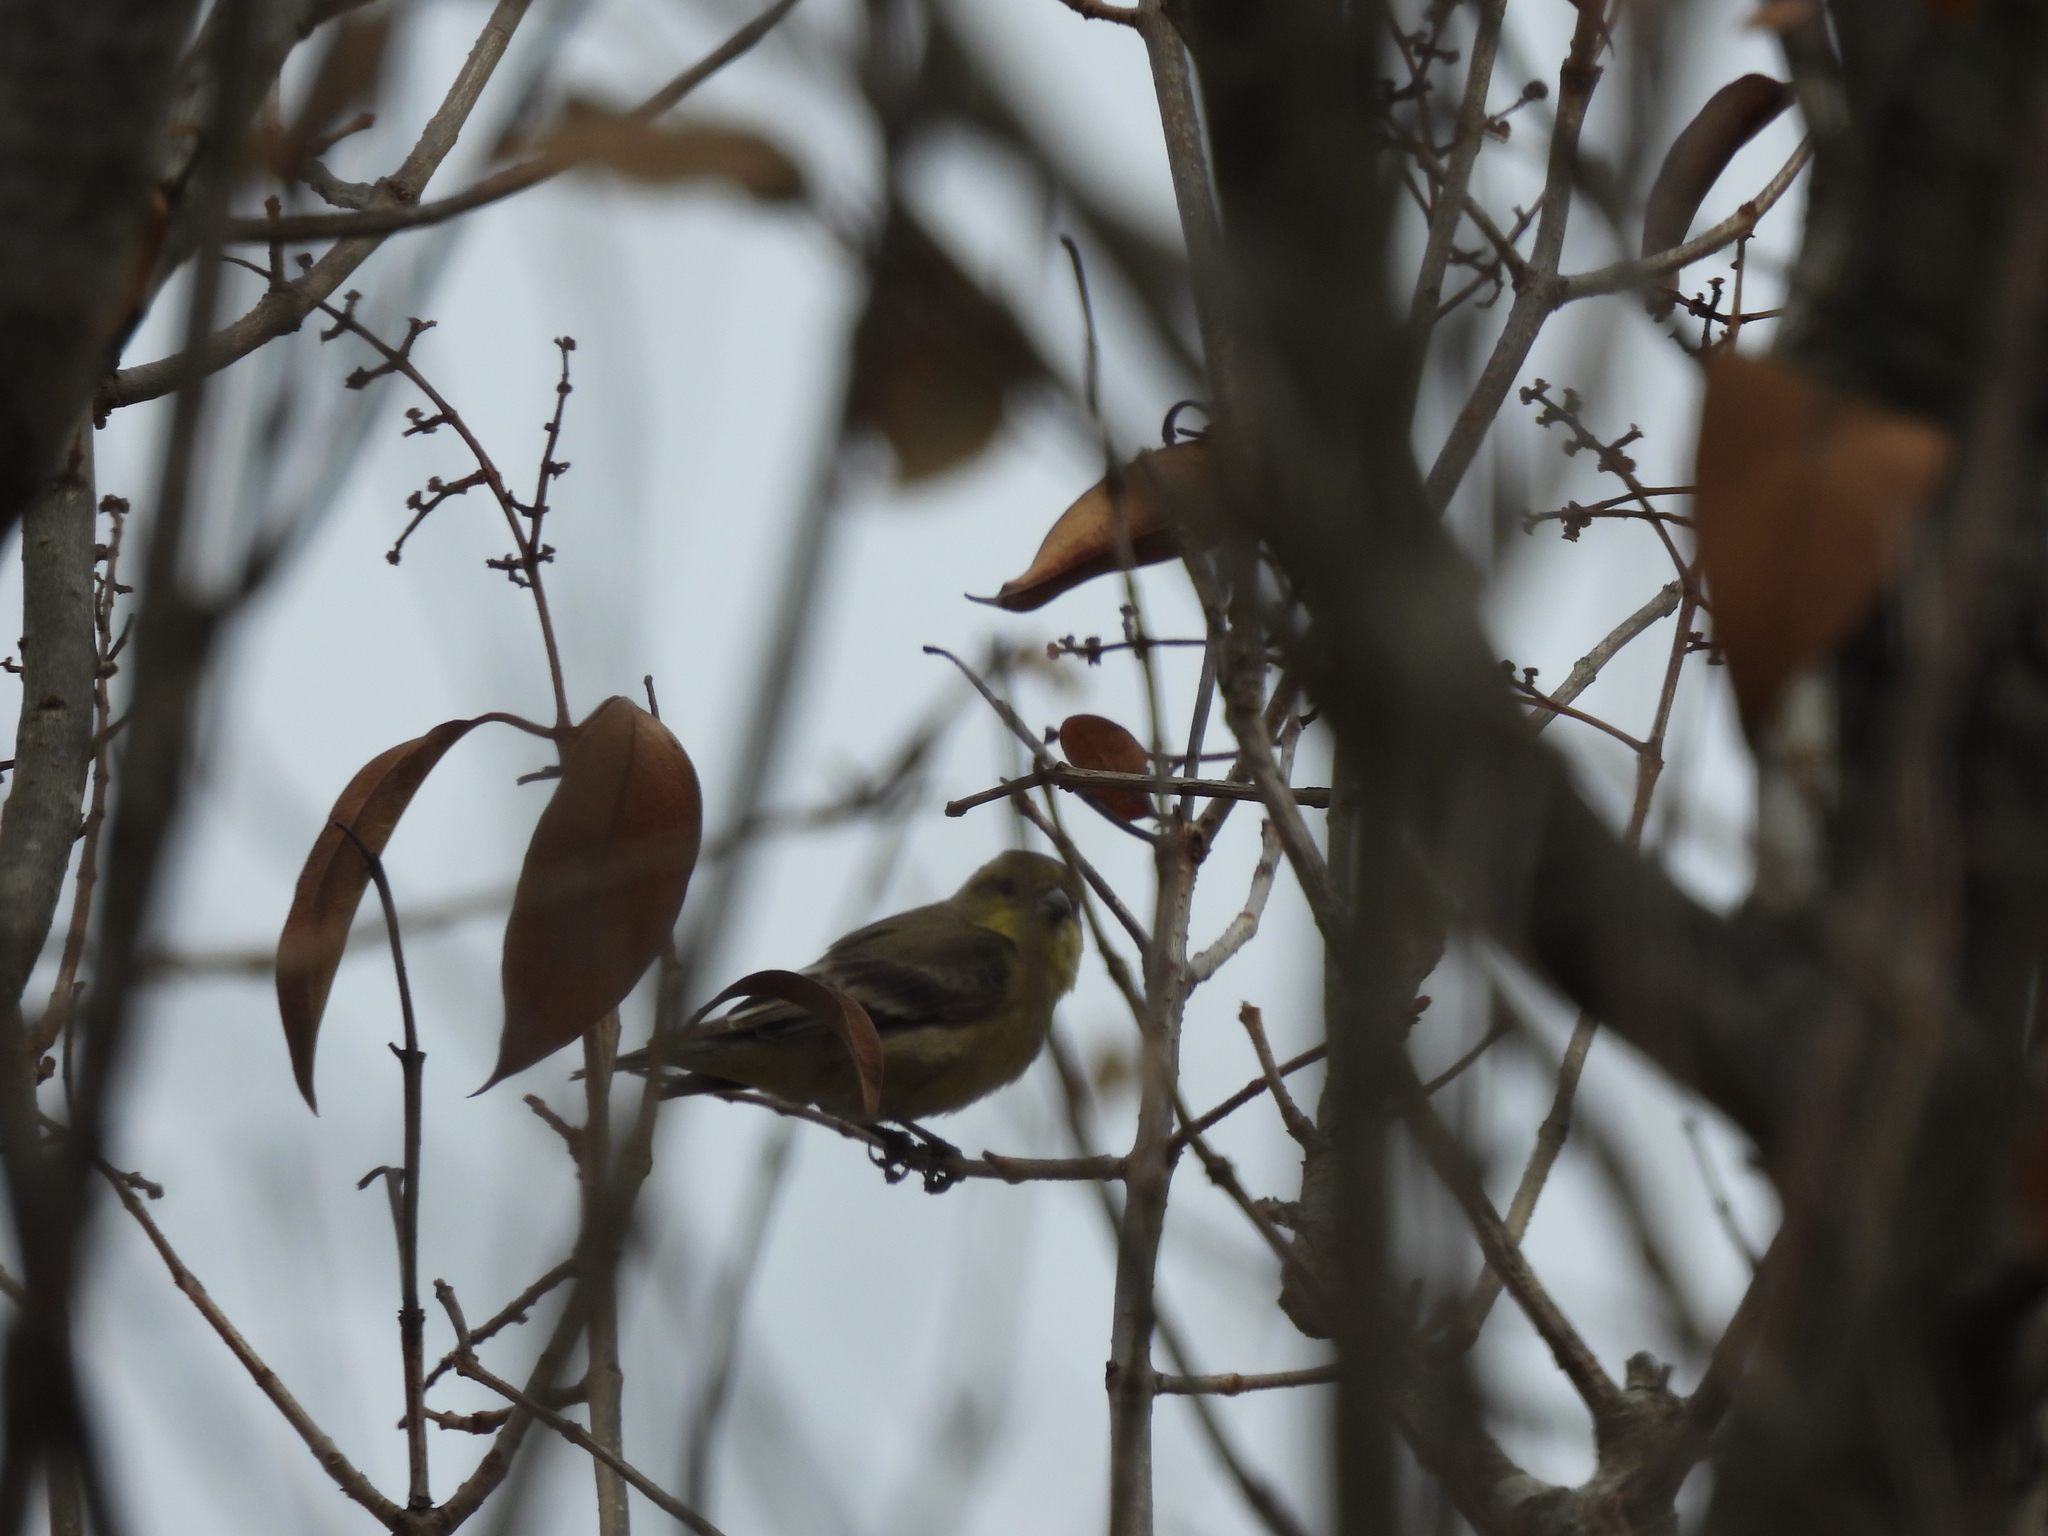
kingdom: Animalia
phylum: Chordata
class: Aves
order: Passeriformes
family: Fringillidae
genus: Spinus
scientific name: Spinus tristis
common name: American goldfinch
